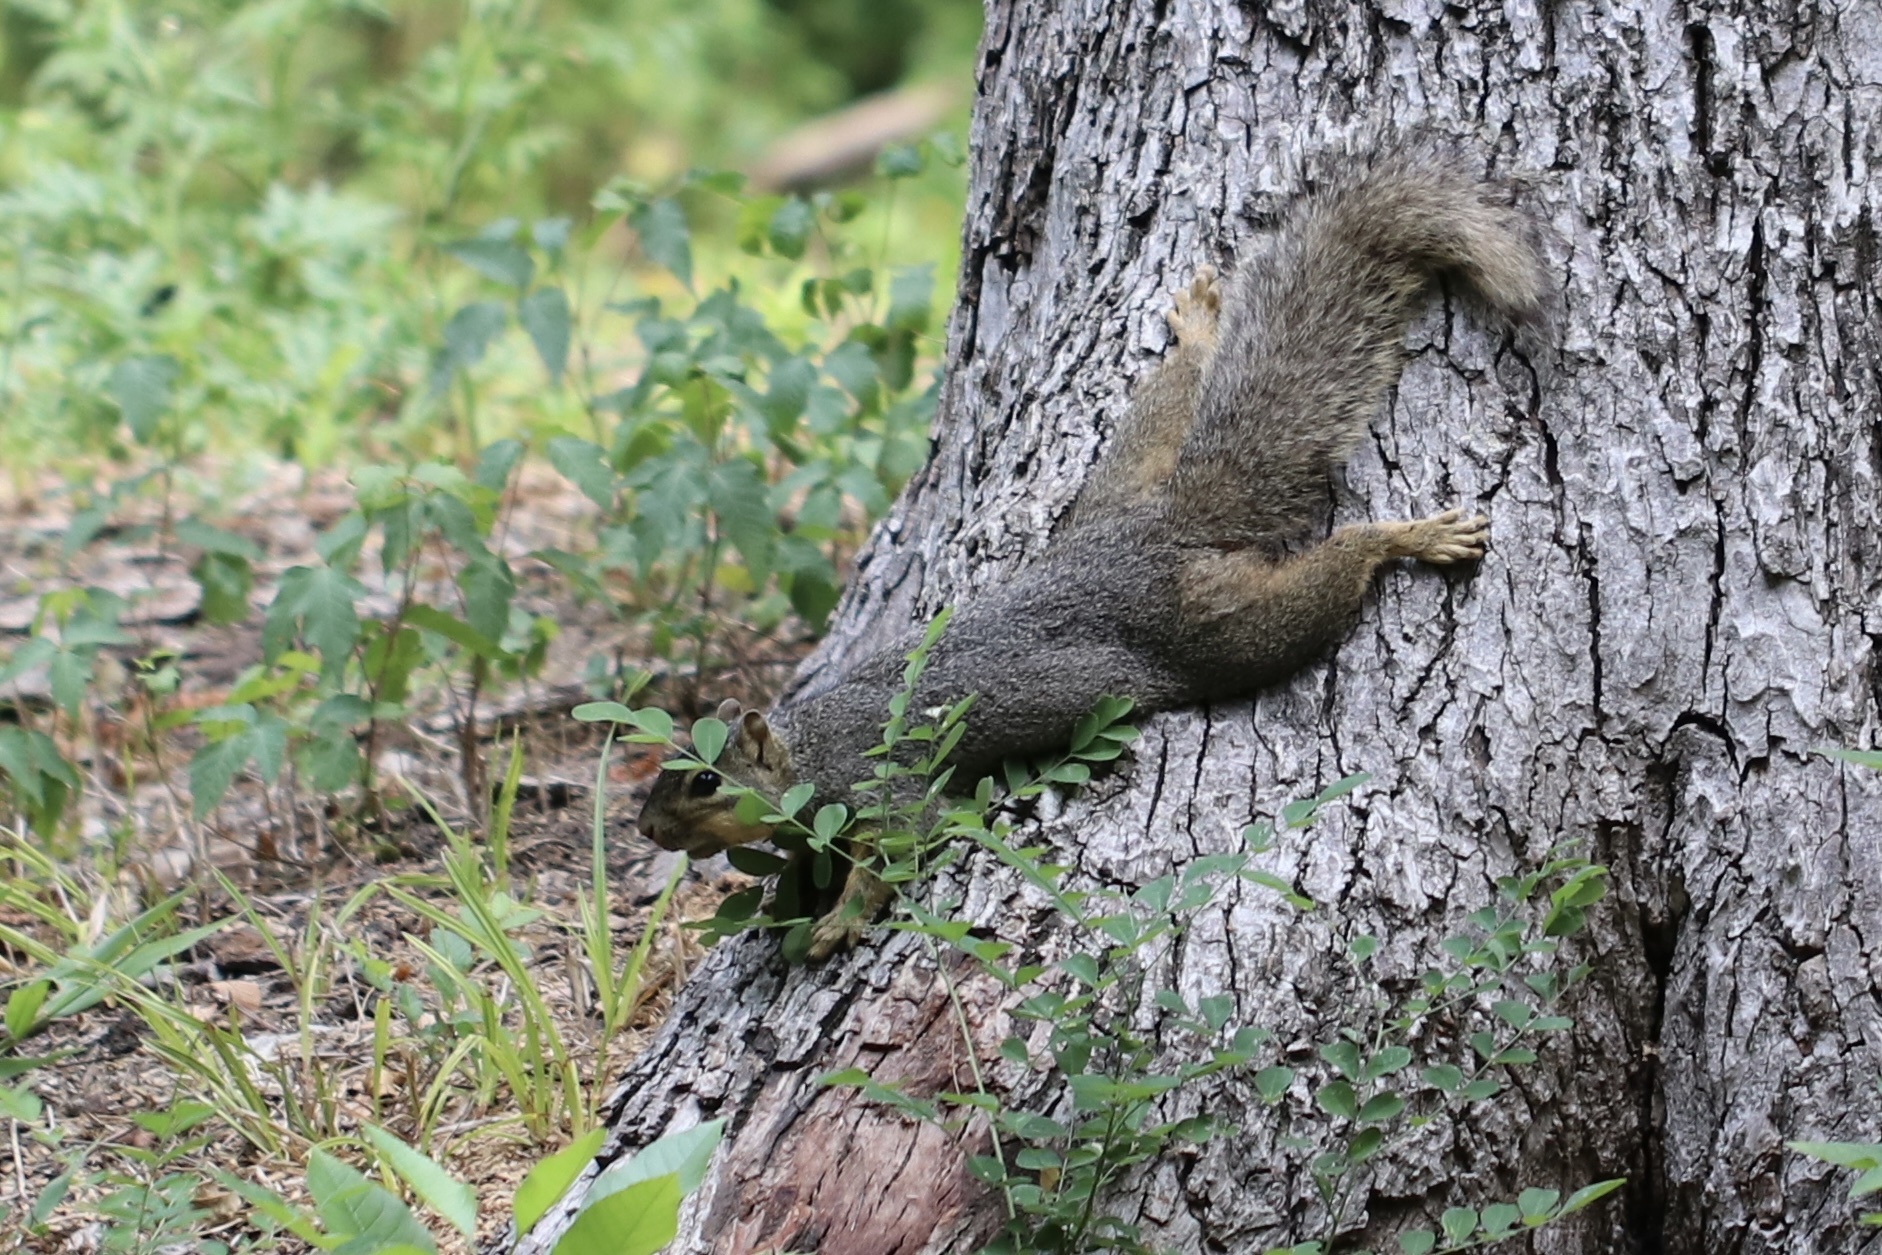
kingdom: Animalia
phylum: Chordata
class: Mammalia
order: Rodentia
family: Sciuridae
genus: Sciurus
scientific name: Sciurus niger
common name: Fox squirrel
